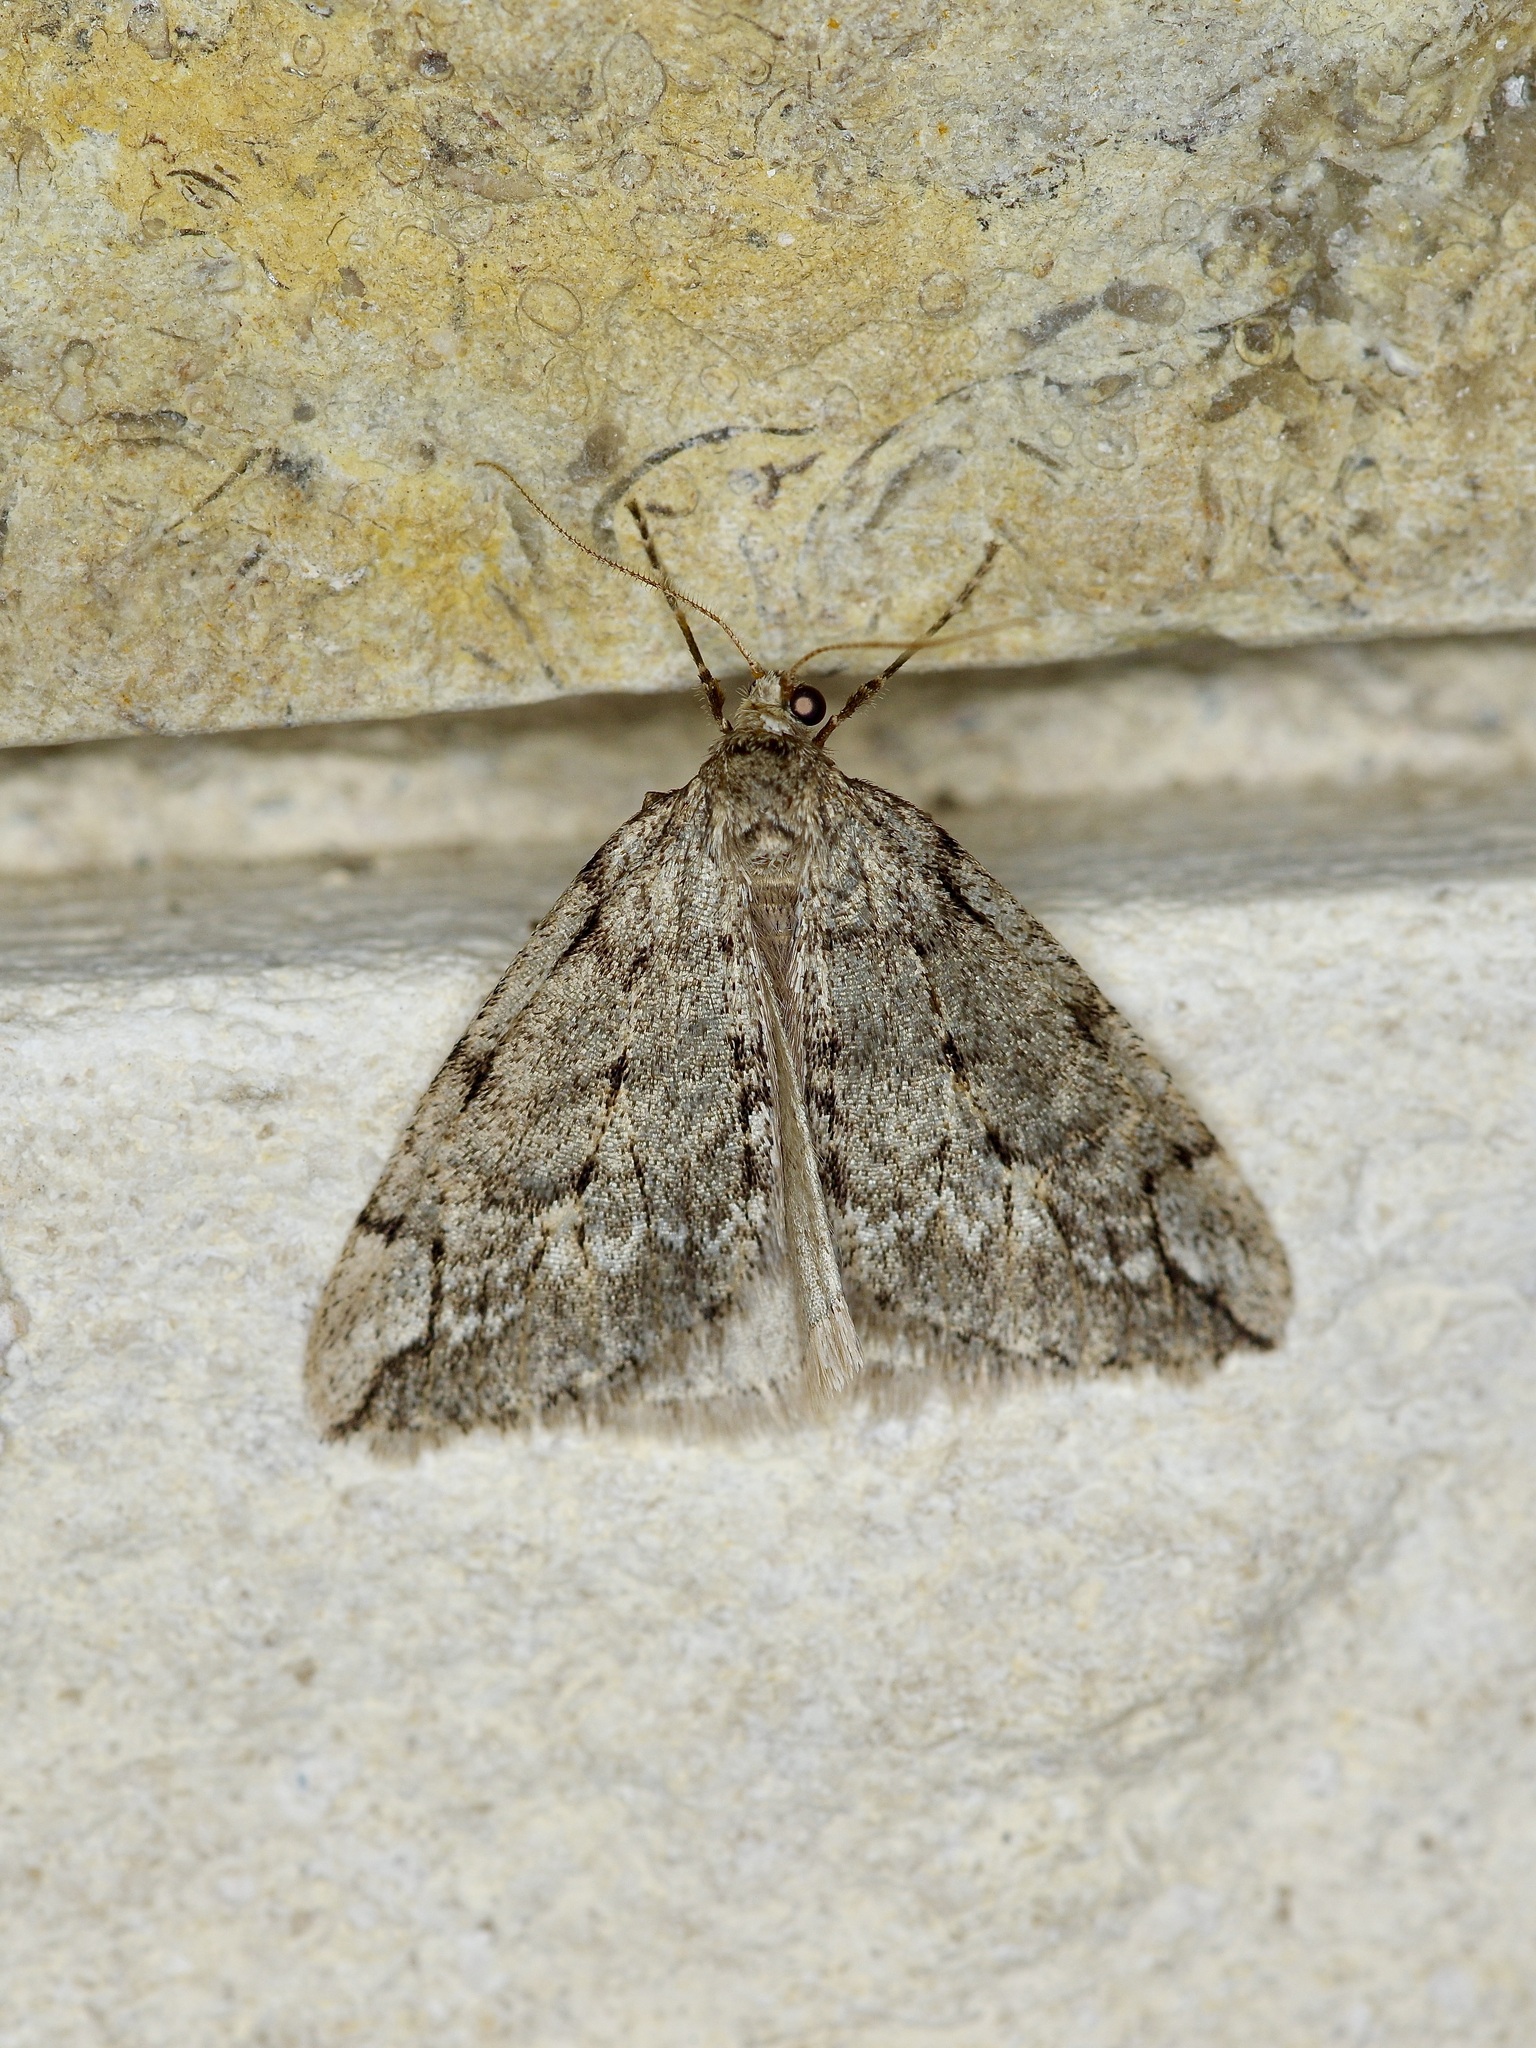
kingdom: Animalia
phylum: Arthropoda
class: Insecta
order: Lepidoptera
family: Geometridae
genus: Paleacrita
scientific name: Paleacrita vernata
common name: Spring cankerworm
